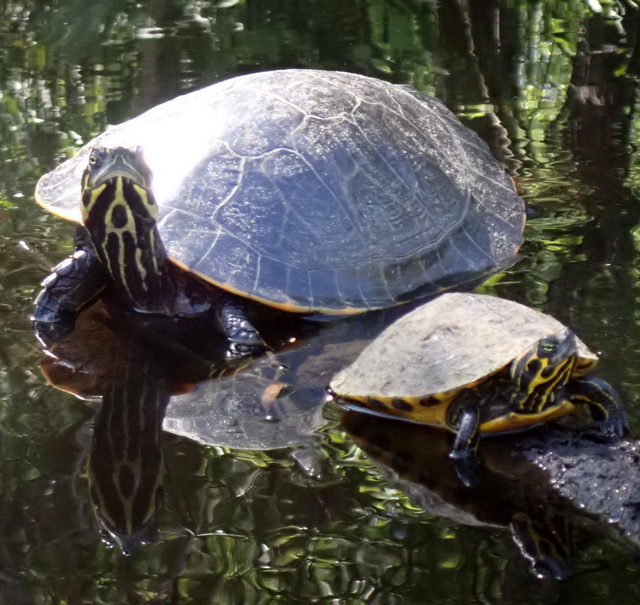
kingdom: Animalia
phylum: Chordata
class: Testudines
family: Emydidae
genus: Pseudemys
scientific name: Pseudemys concinna
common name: Eastern river cooter
